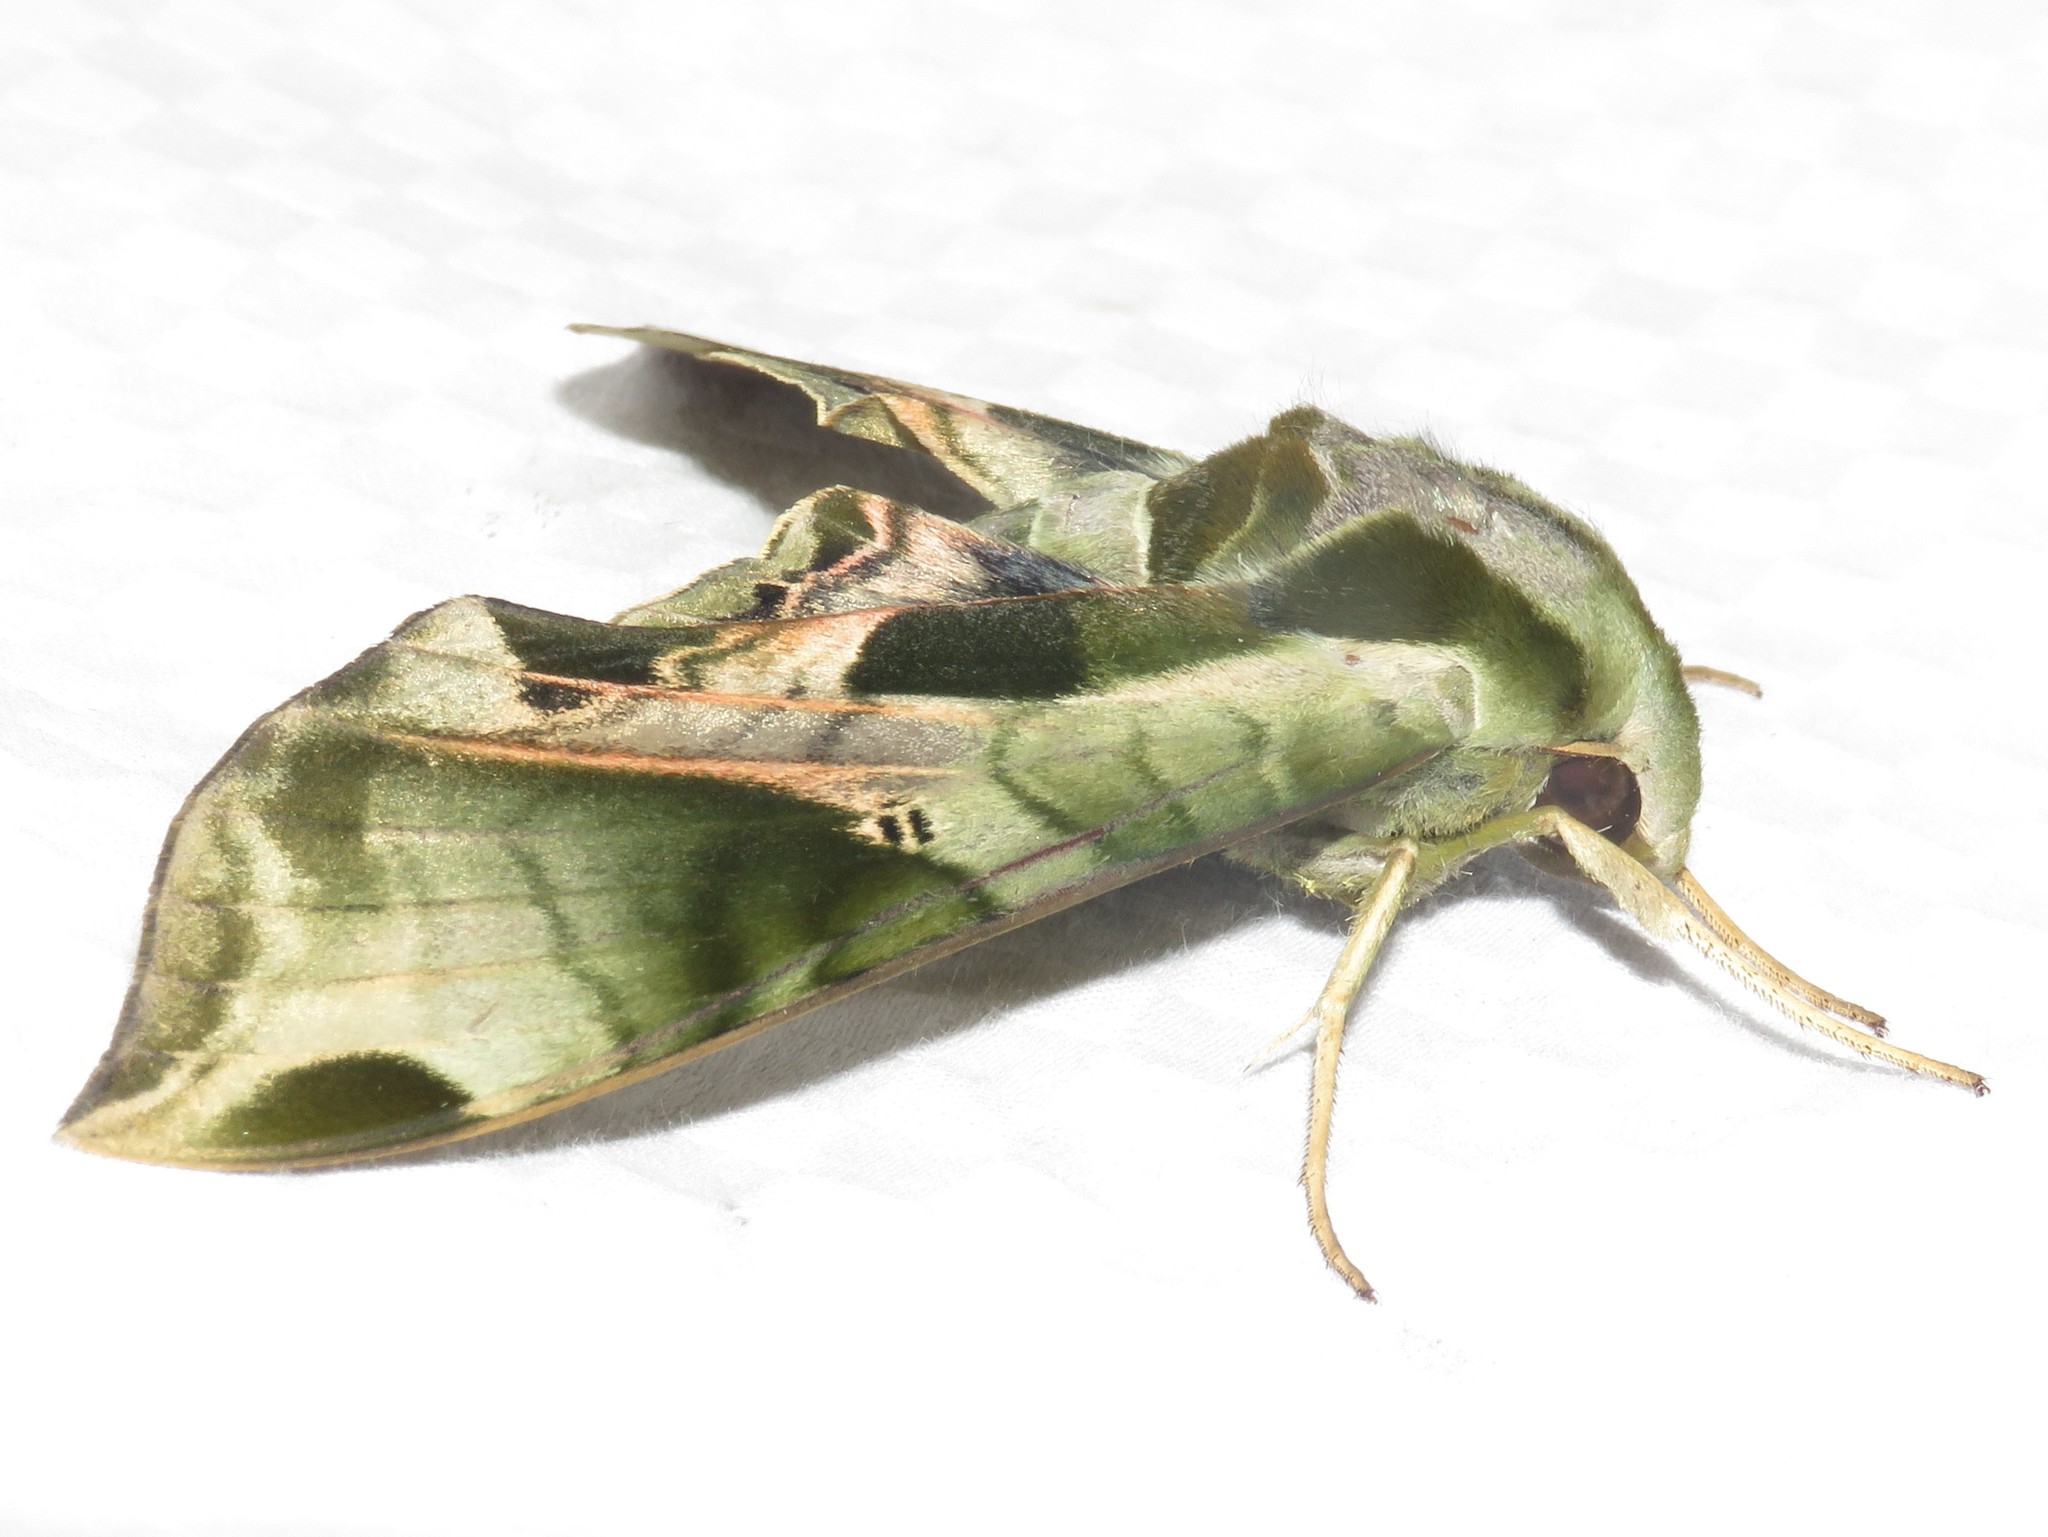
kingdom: Animalia
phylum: Arthropoda
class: Insecta
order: Lepidoptera
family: Sphingidae
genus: Eumorpha
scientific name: Eumorpha pandorus
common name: Pandora sphinx
